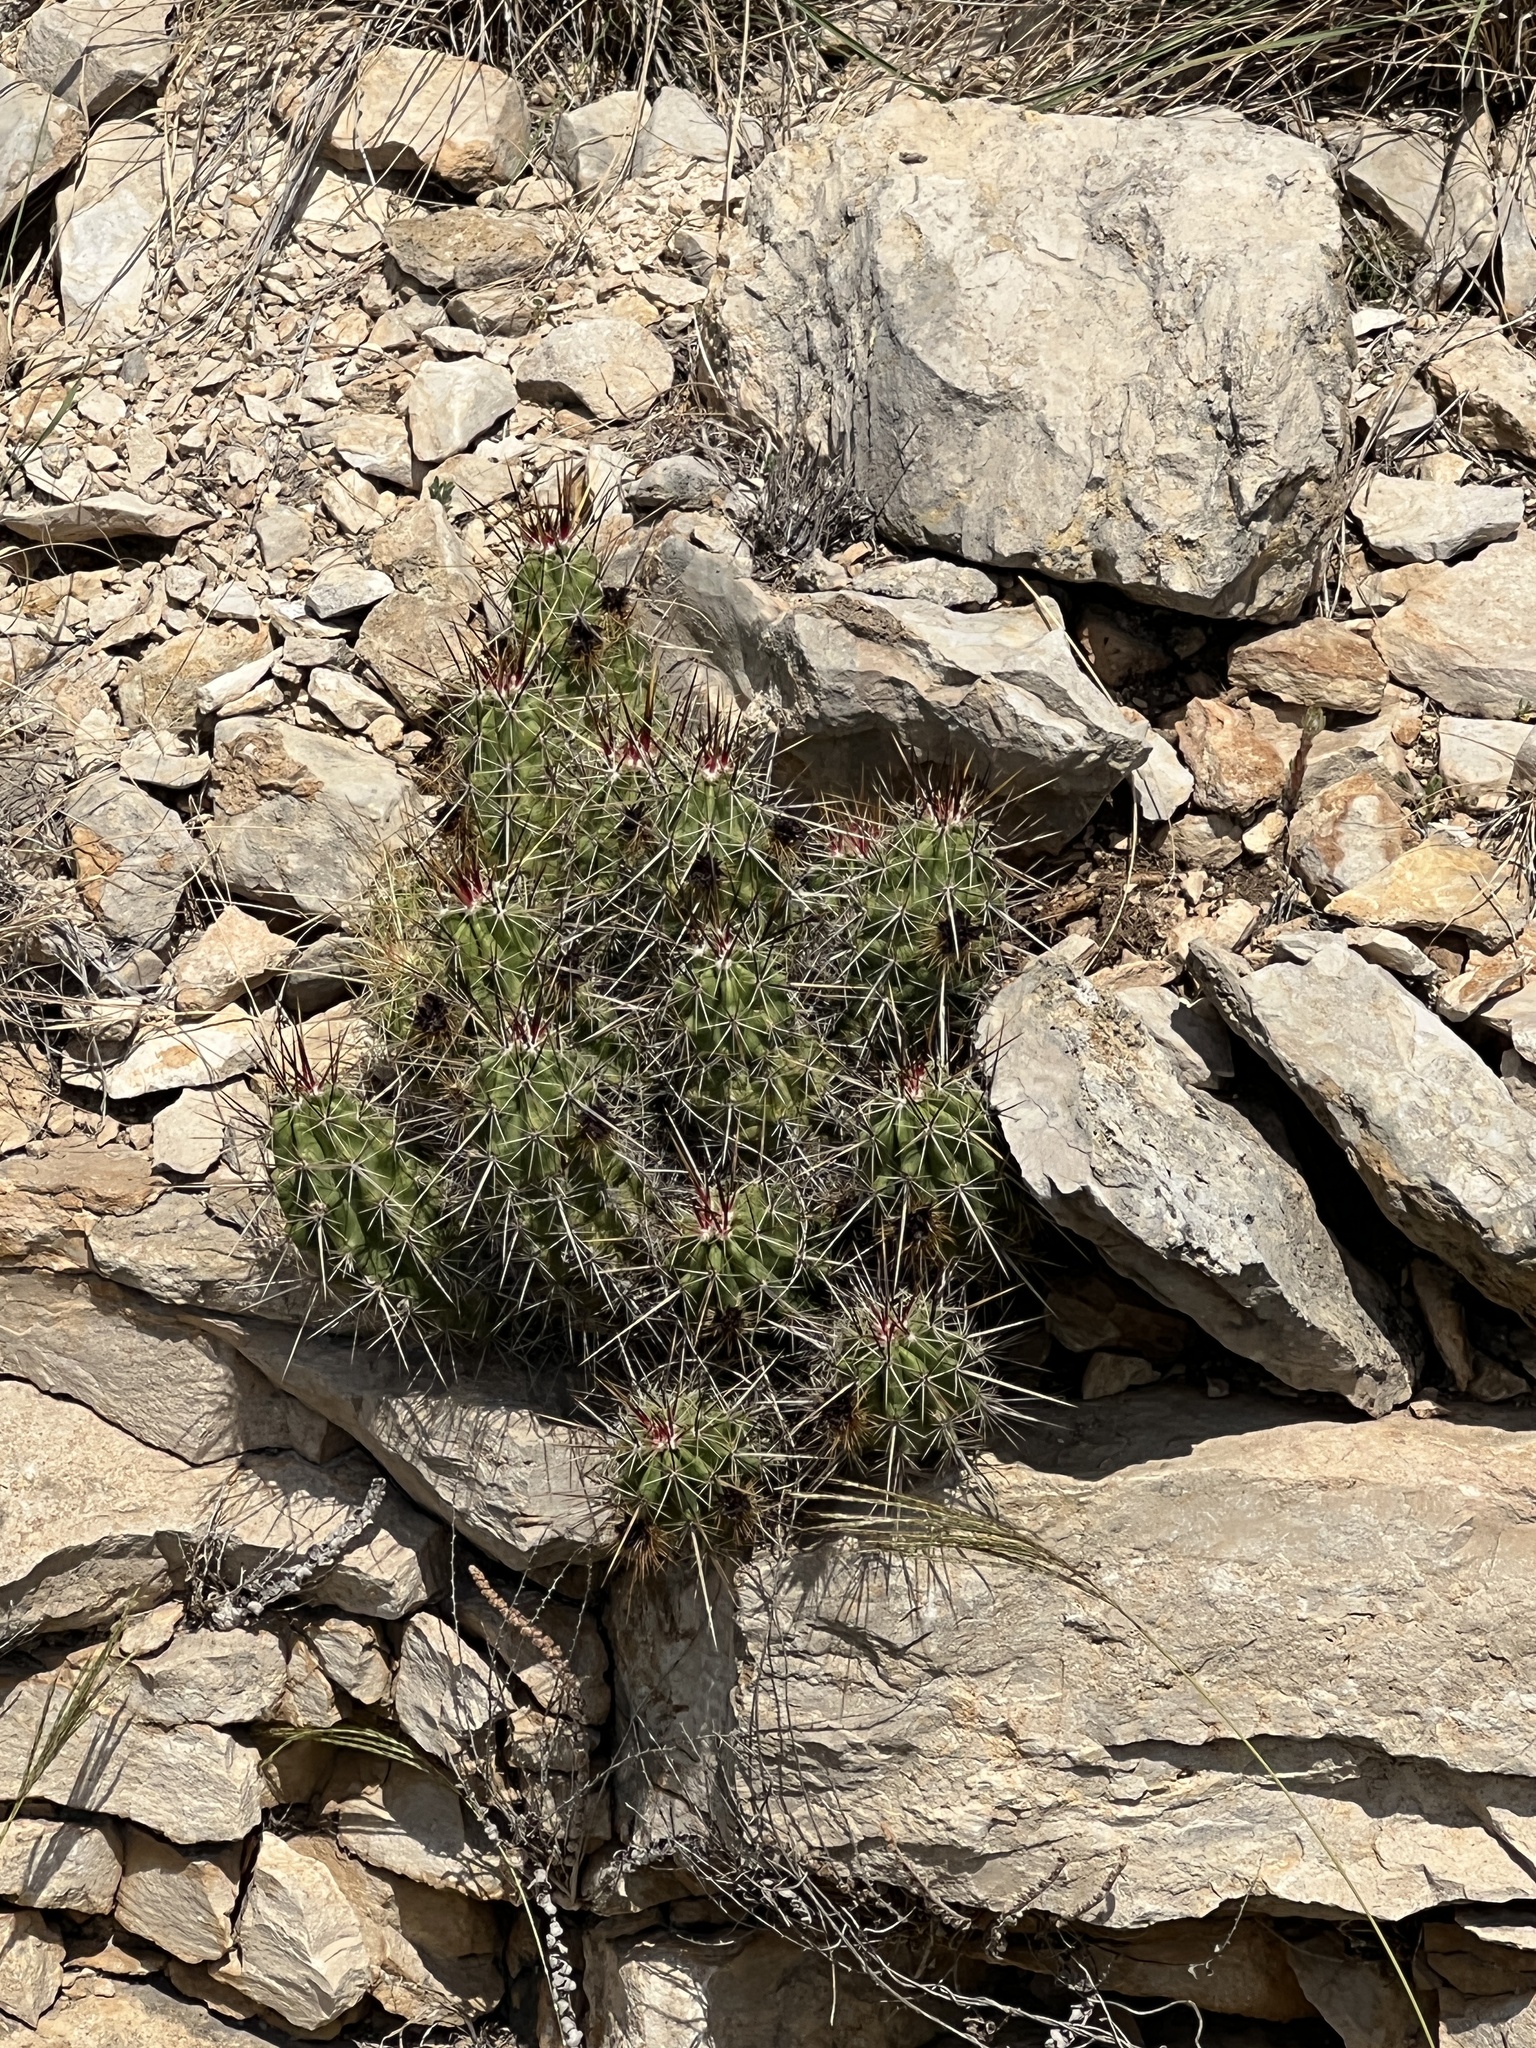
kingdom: Plantae
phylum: Tracheophyta
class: Magnoliopsida
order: Caryophyllales
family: Cactaceae
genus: Echinocereus
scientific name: Echinocereus enneacanthus
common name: Pitaya
